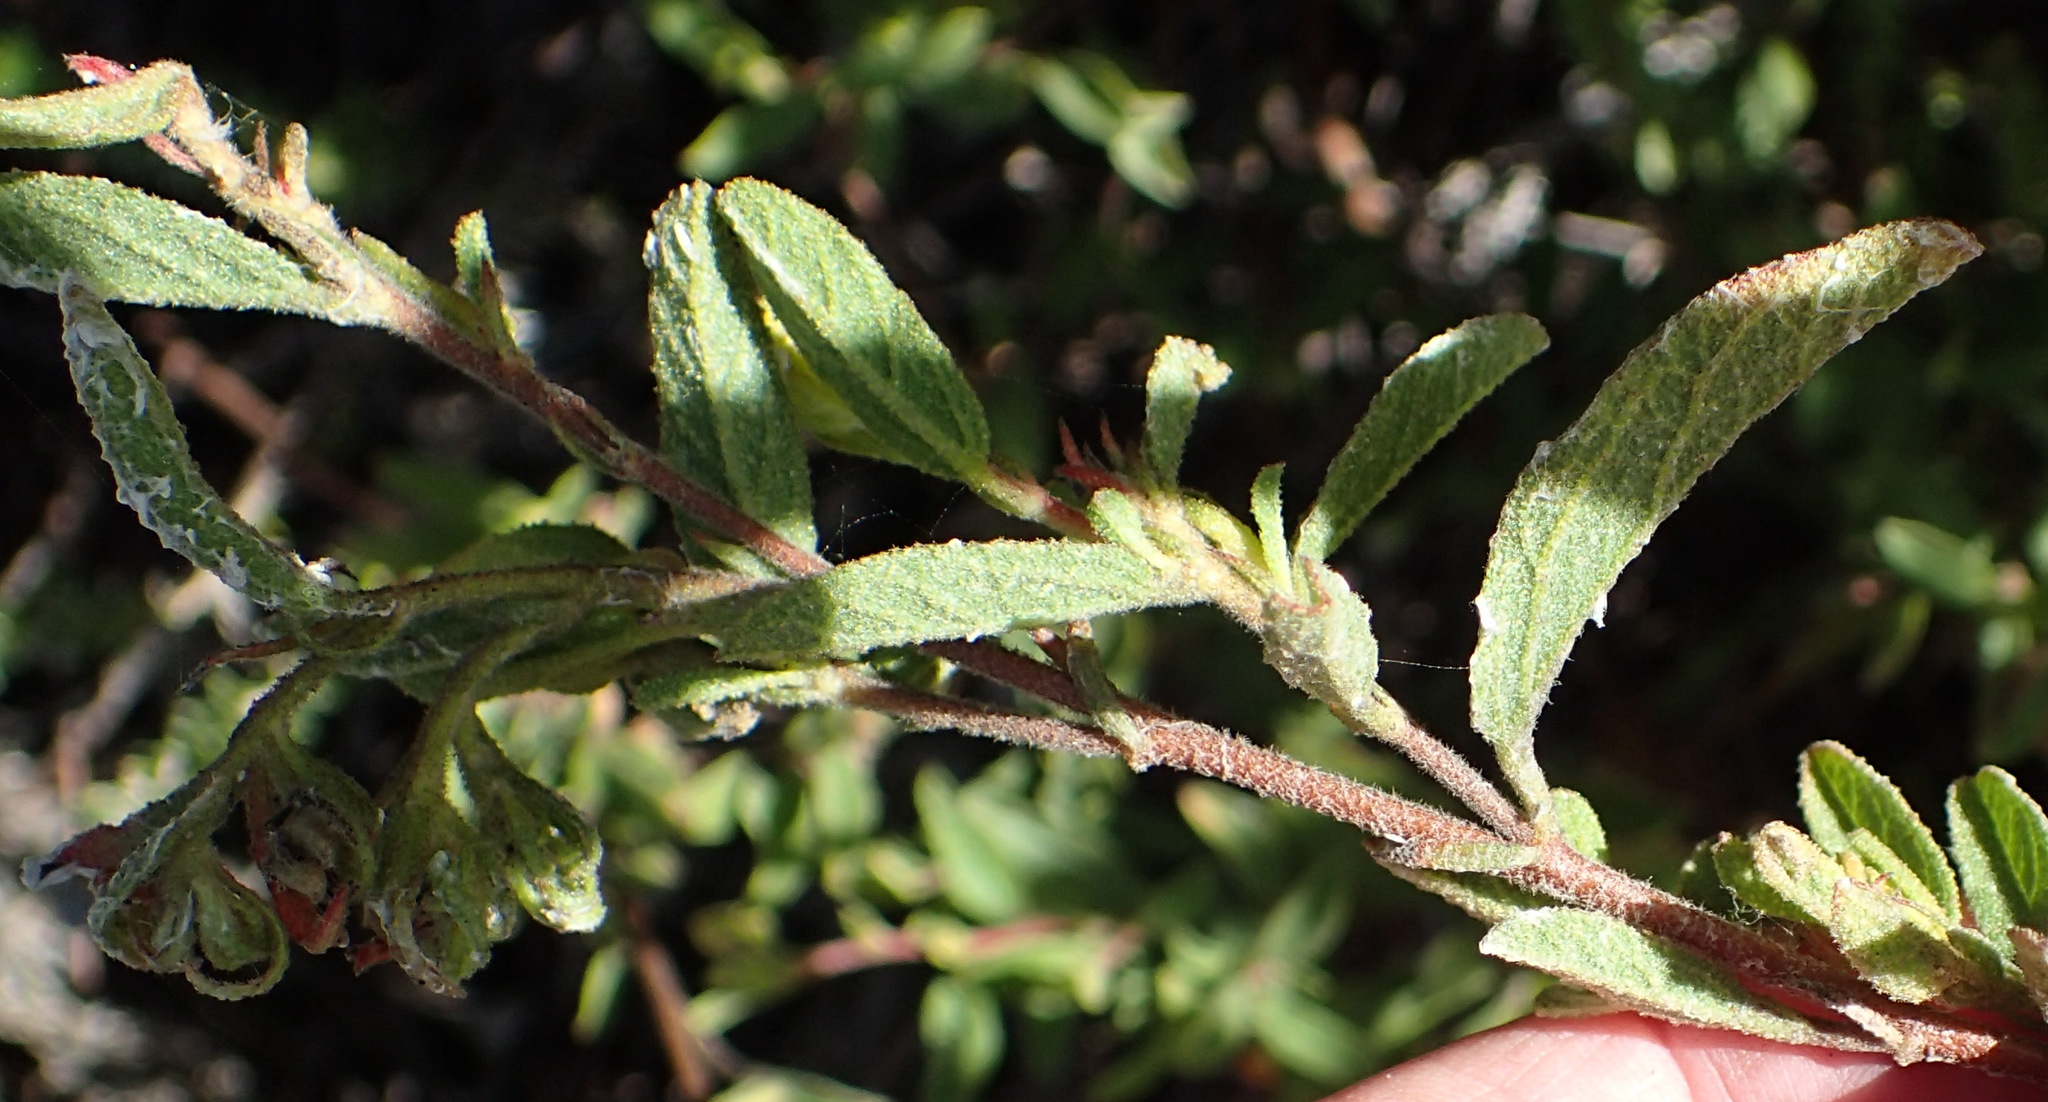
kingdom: Plantae
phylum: Tracheophyta
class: Magnoliopsida
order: Malvales
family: Malvaceae
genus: Hermannia
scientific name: Hermannia salviifolia
